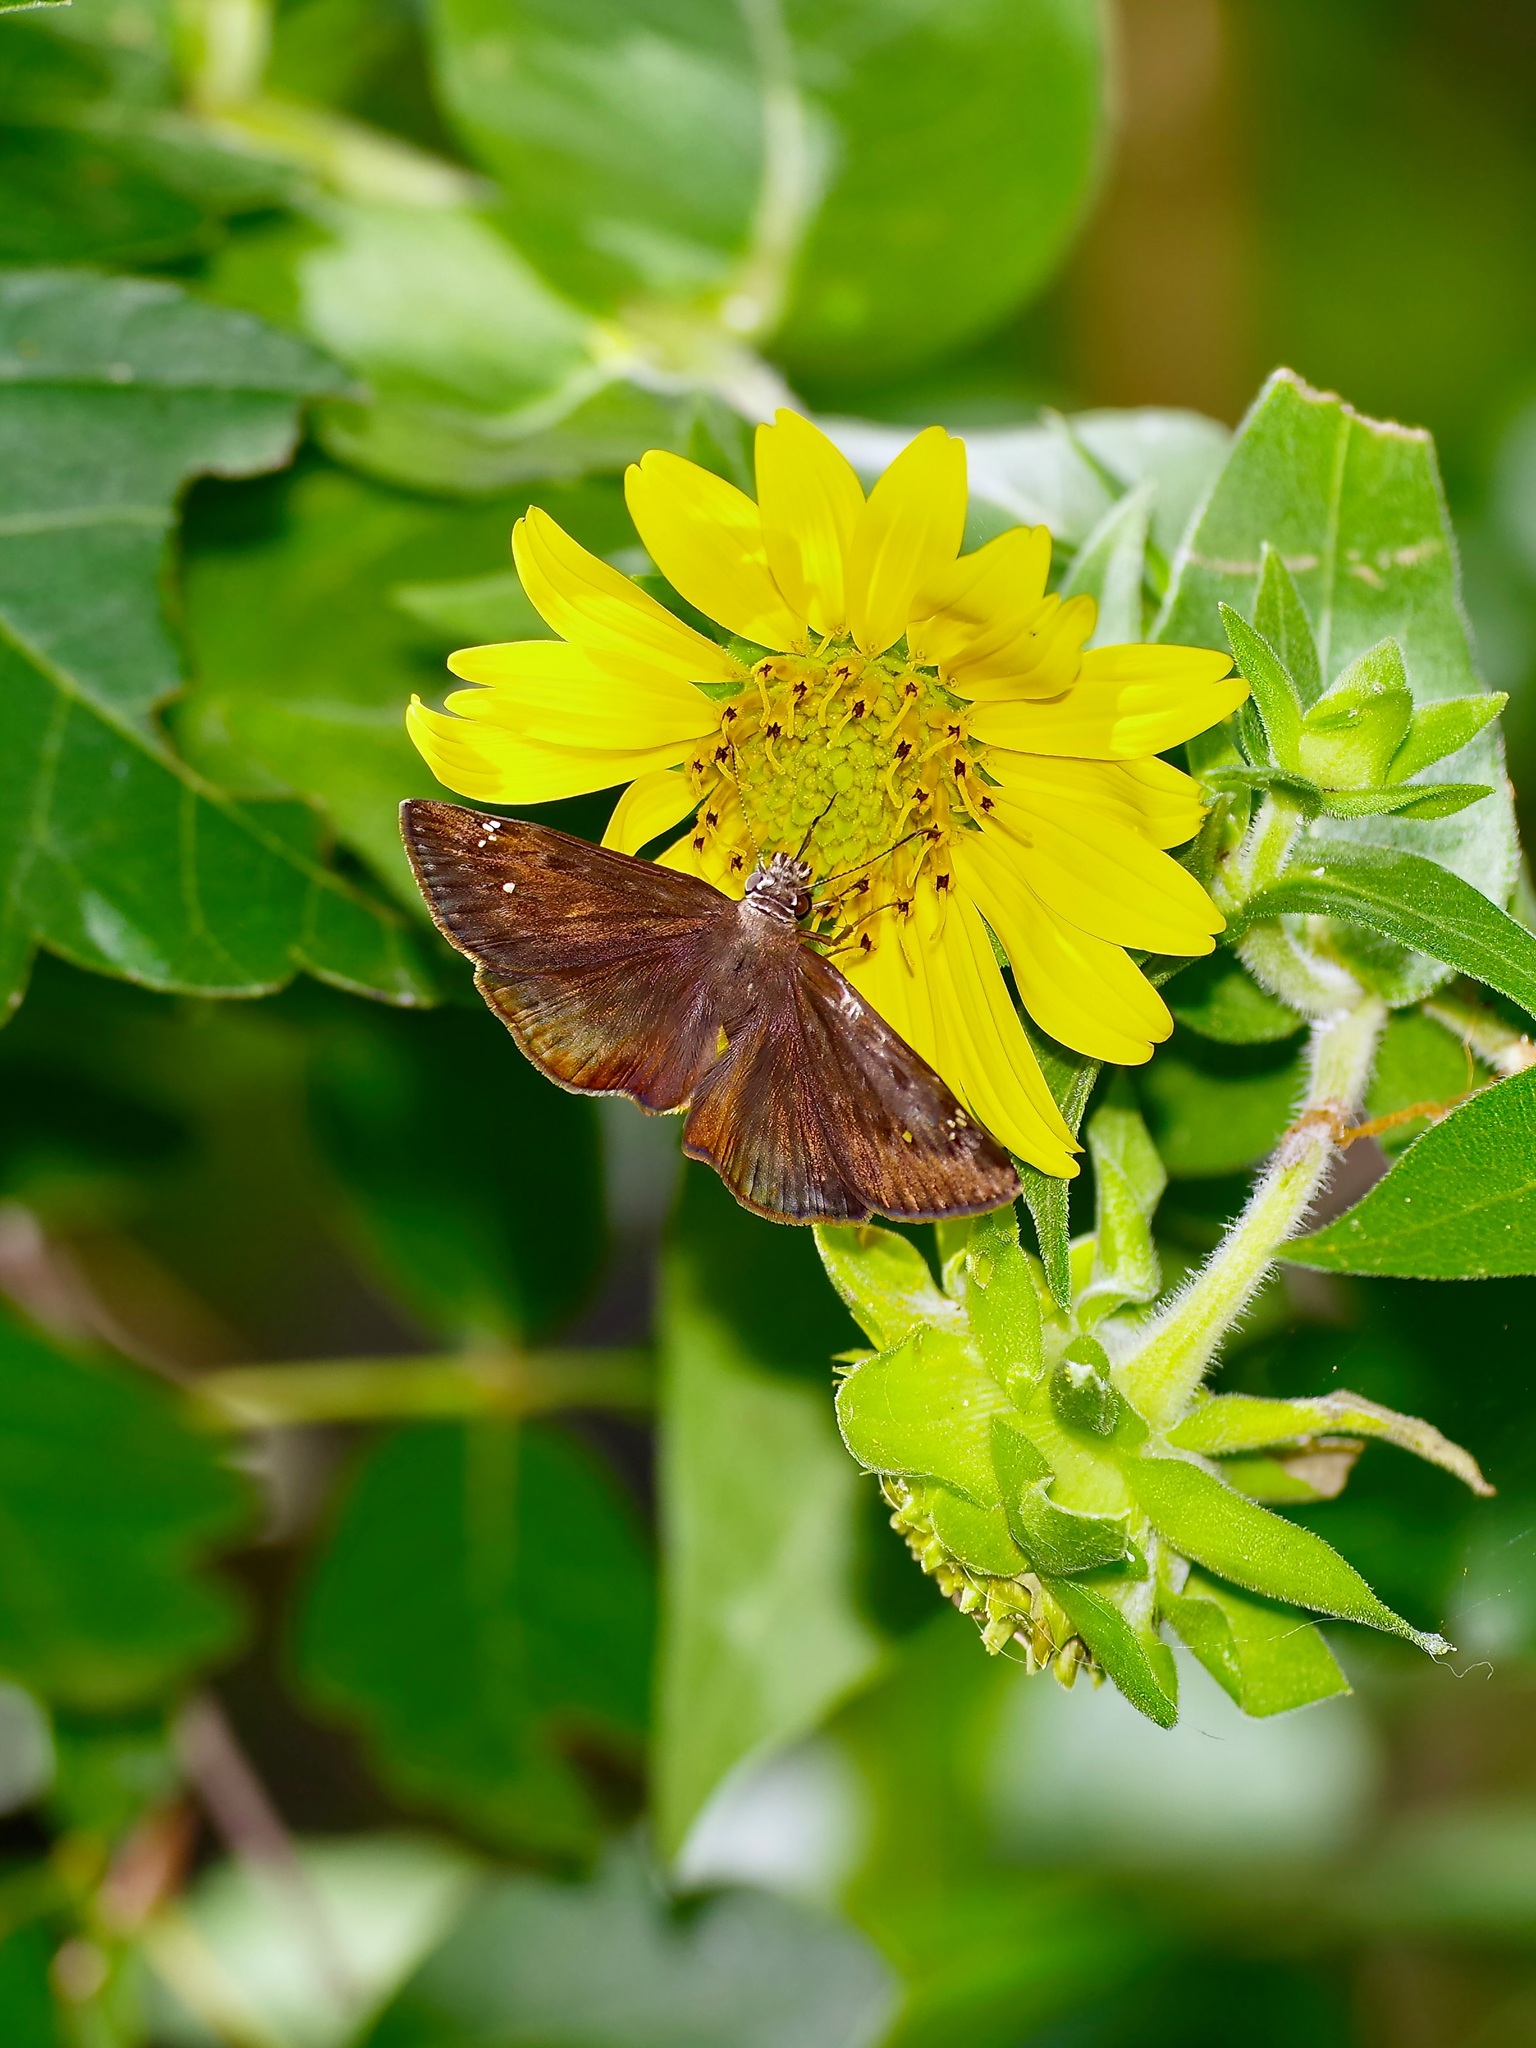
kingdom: Animalia
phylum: Arthropoda
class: Insecta
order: Lepidoptera
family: Hesperiidae
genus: Erynnis
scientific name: Erynnis horatius
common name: Horace's duskywing
